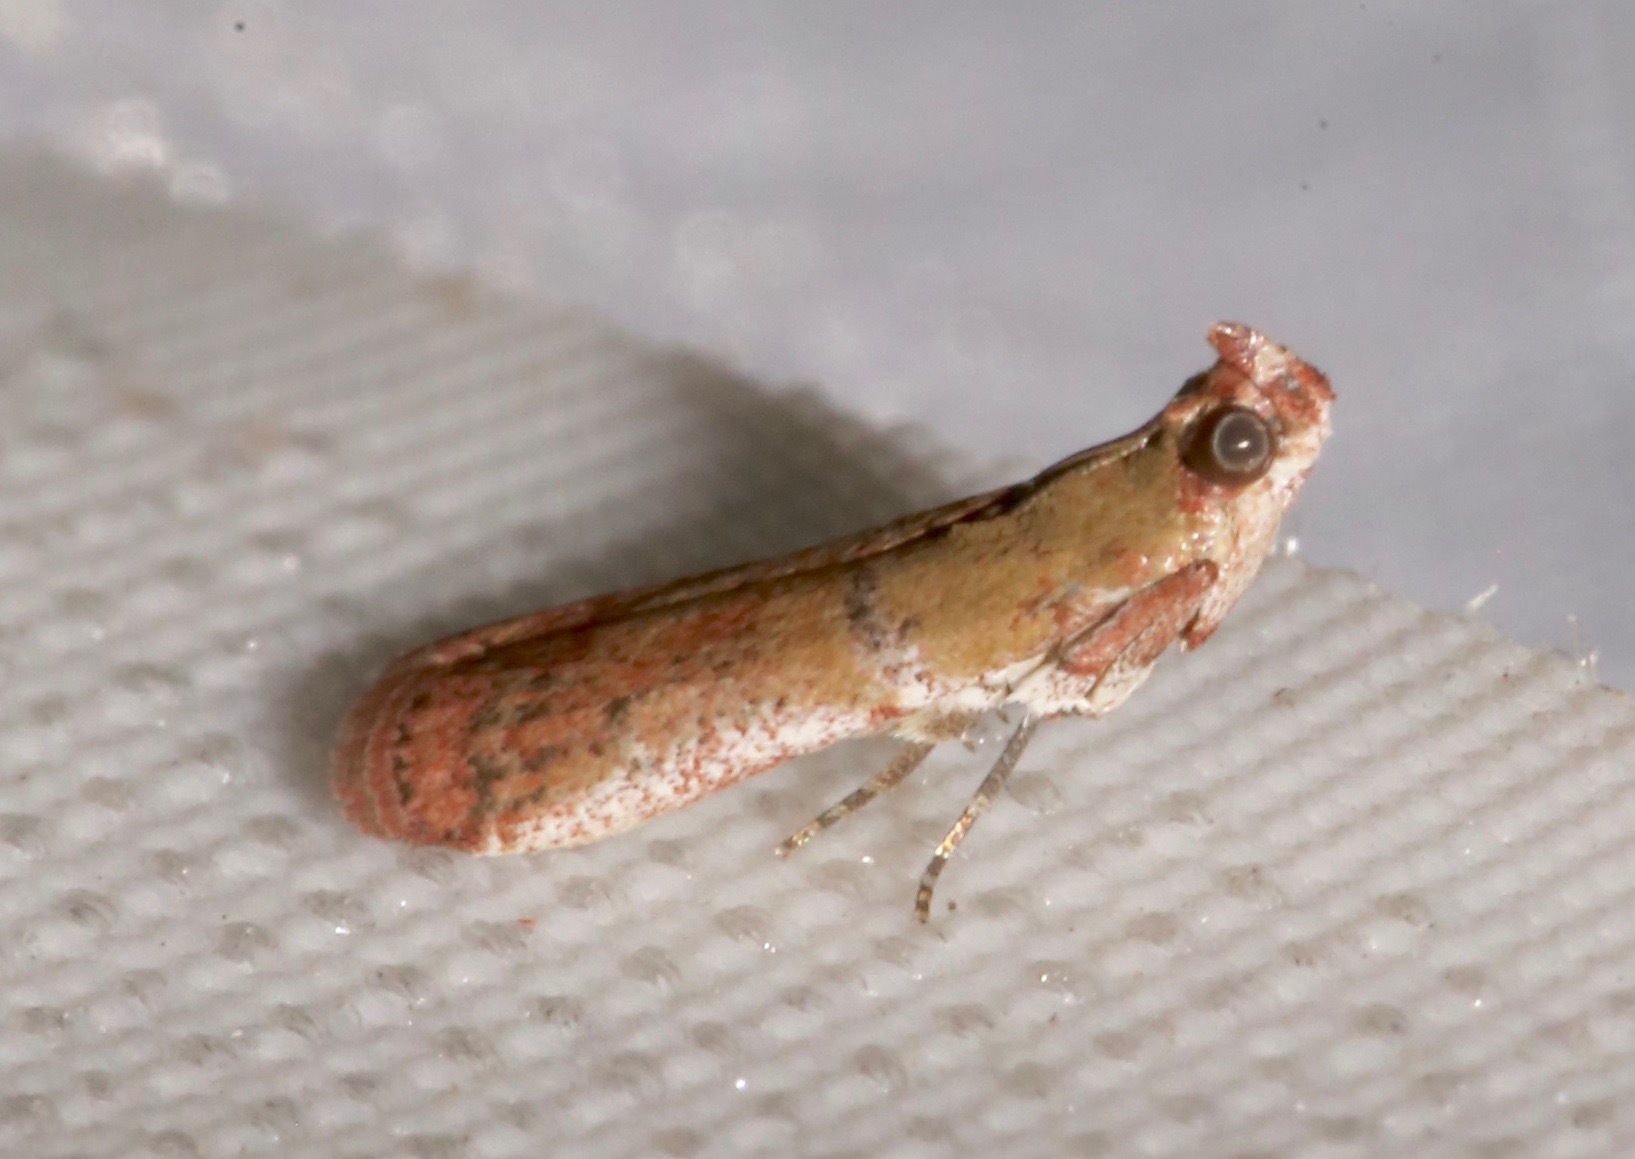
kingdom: Animalia
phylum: Arthropoda
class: Insecta
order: Lepidoptera
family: Pyralidae
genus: Atheloca
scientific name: Atheloca subrufella
